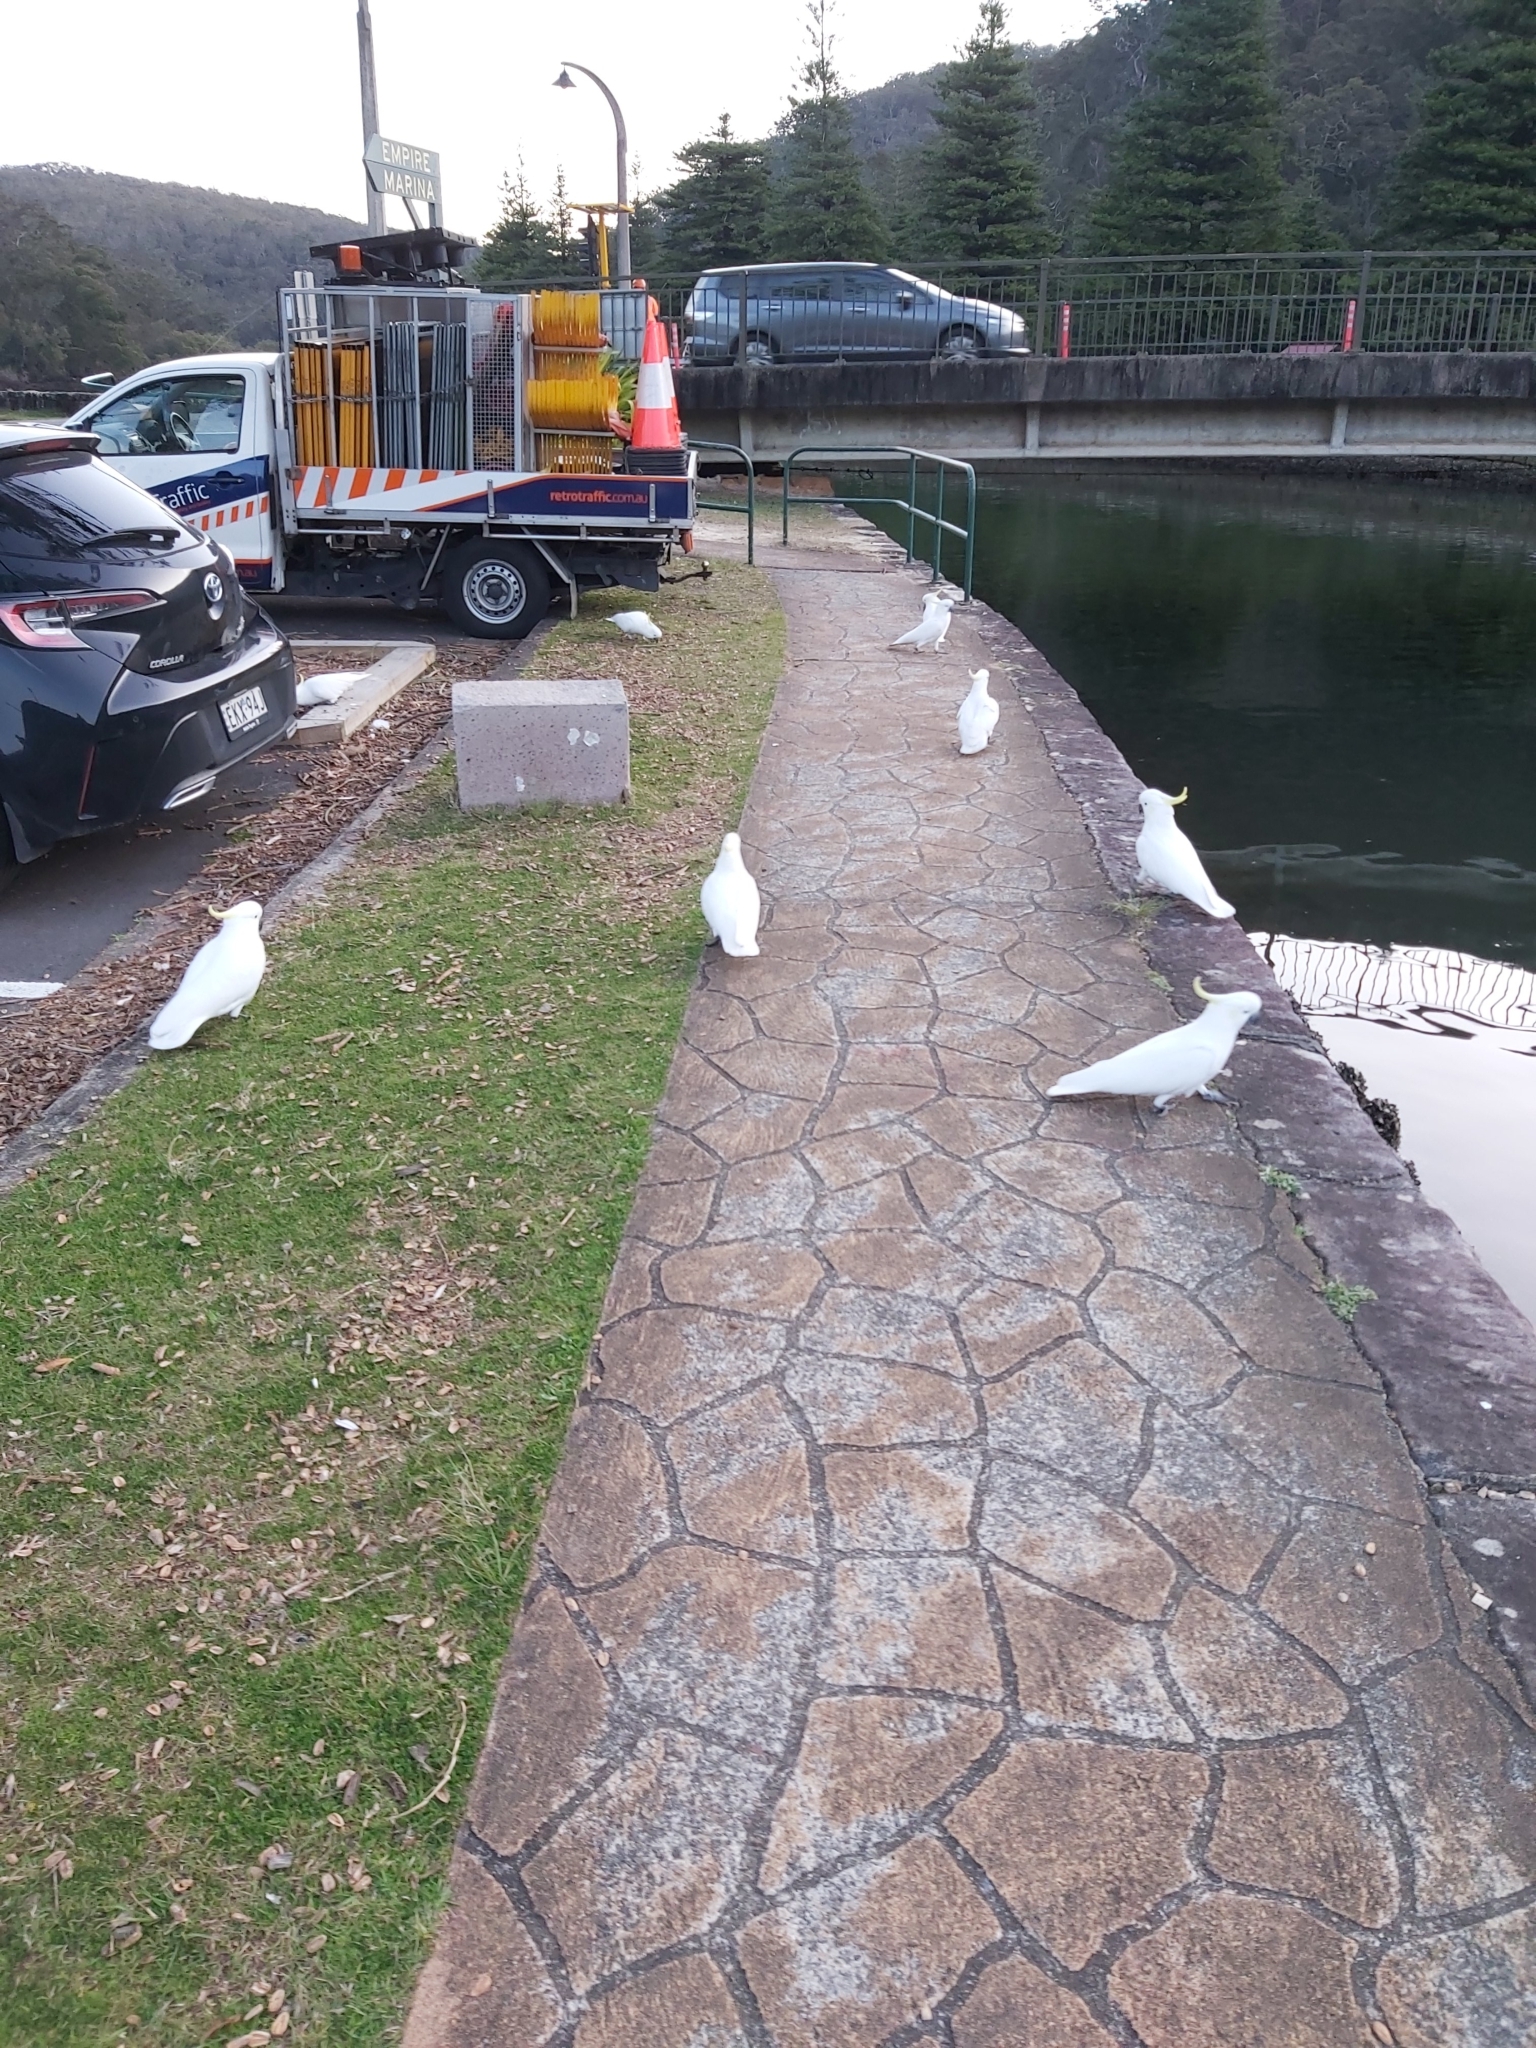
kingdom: Animalia
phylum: Chordata
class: Aves
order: Psittaciformes
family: Psittacidae
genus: Cacatua
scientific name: Cacatua galerita
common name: Sulphur-crested cockatoo
